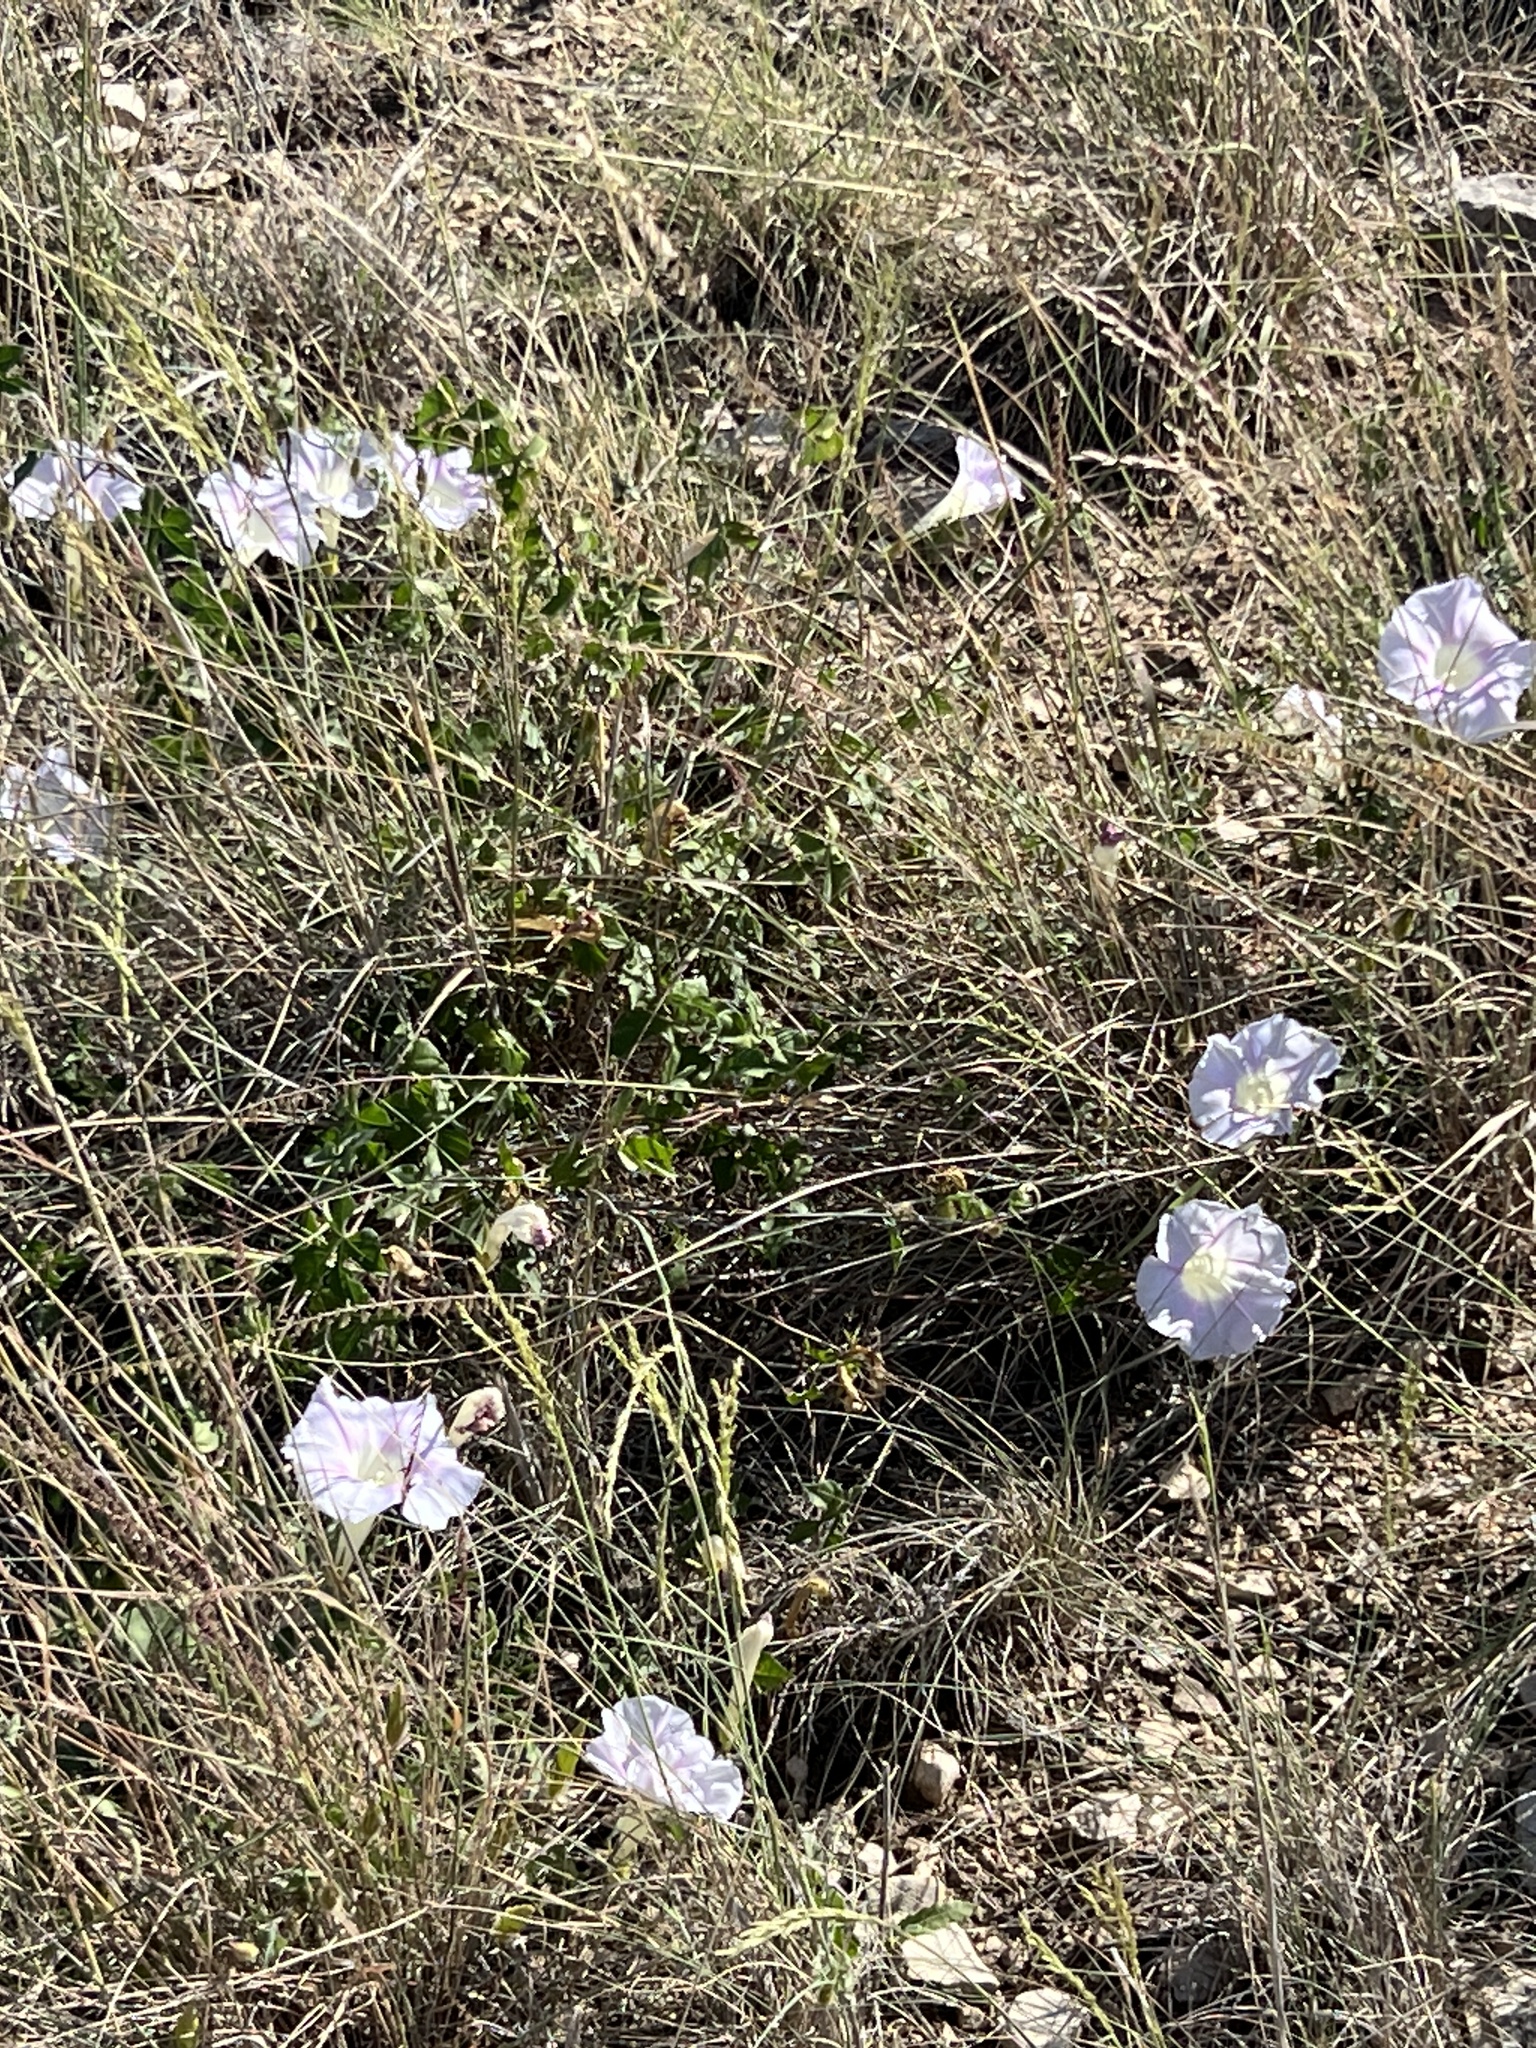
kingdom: Plantae
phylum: Tracheophyta
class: Magnoliopsida
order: Solanales
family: Convolvulaceae
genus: Ipomoea
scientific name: Ipomoea lindheimeri
